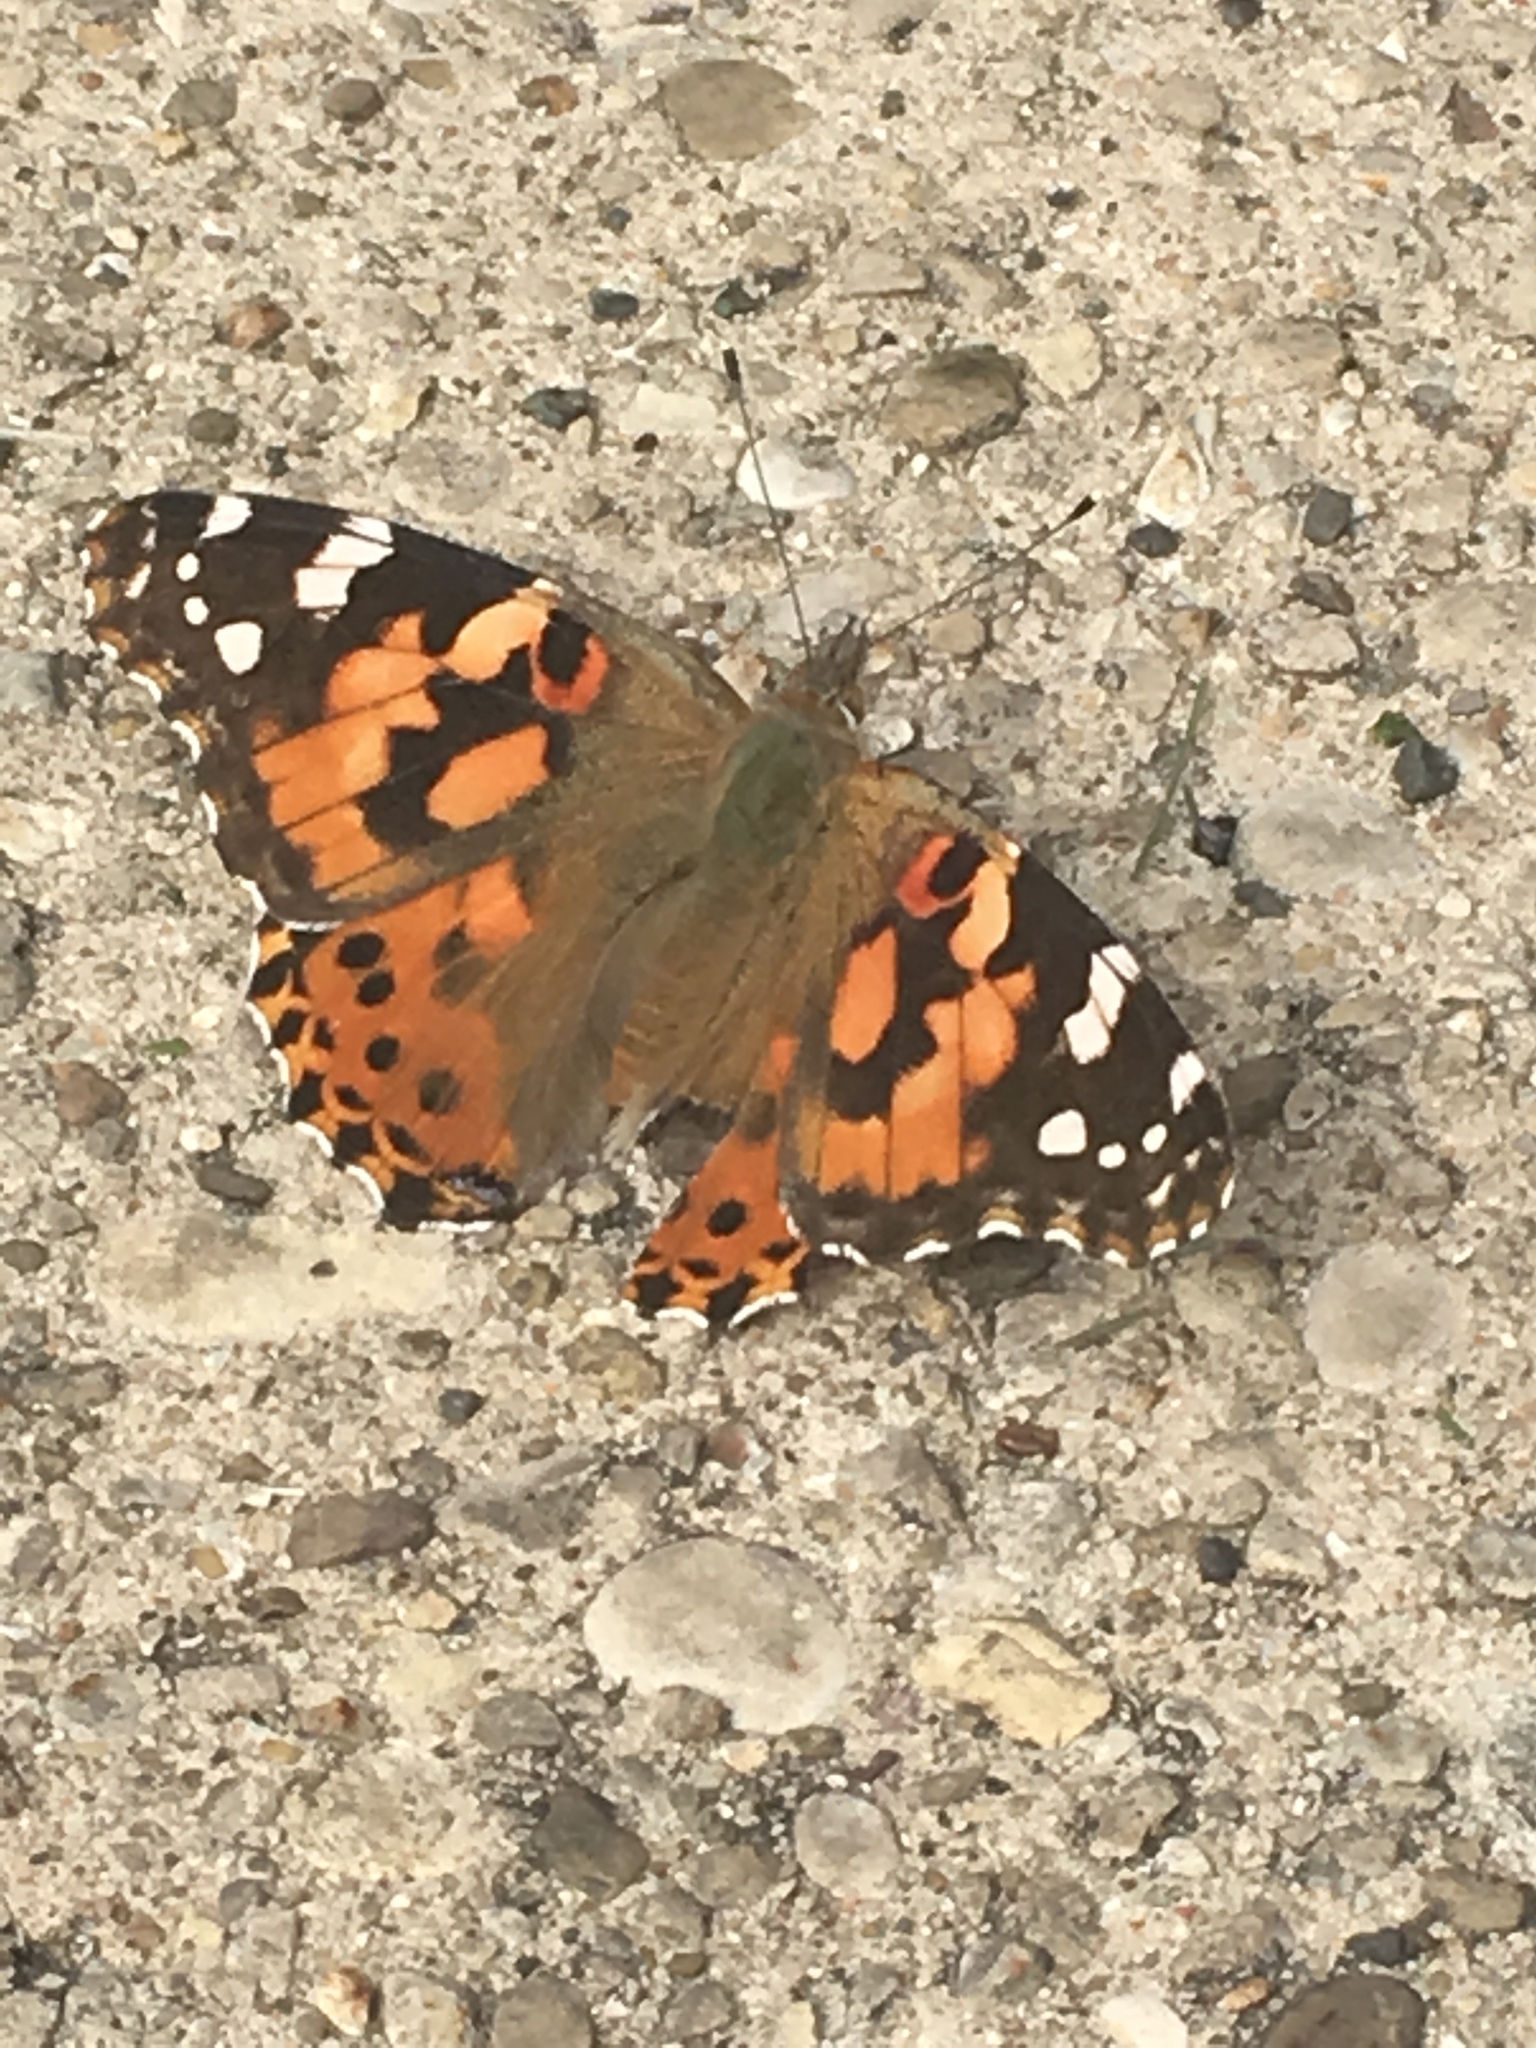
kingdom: Animalia
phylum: Arthropoda
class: Insecta
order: Lepidoptera
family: Nymphalidae
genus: Vanessa
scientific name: Vanessa cardui
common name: Painted lady
